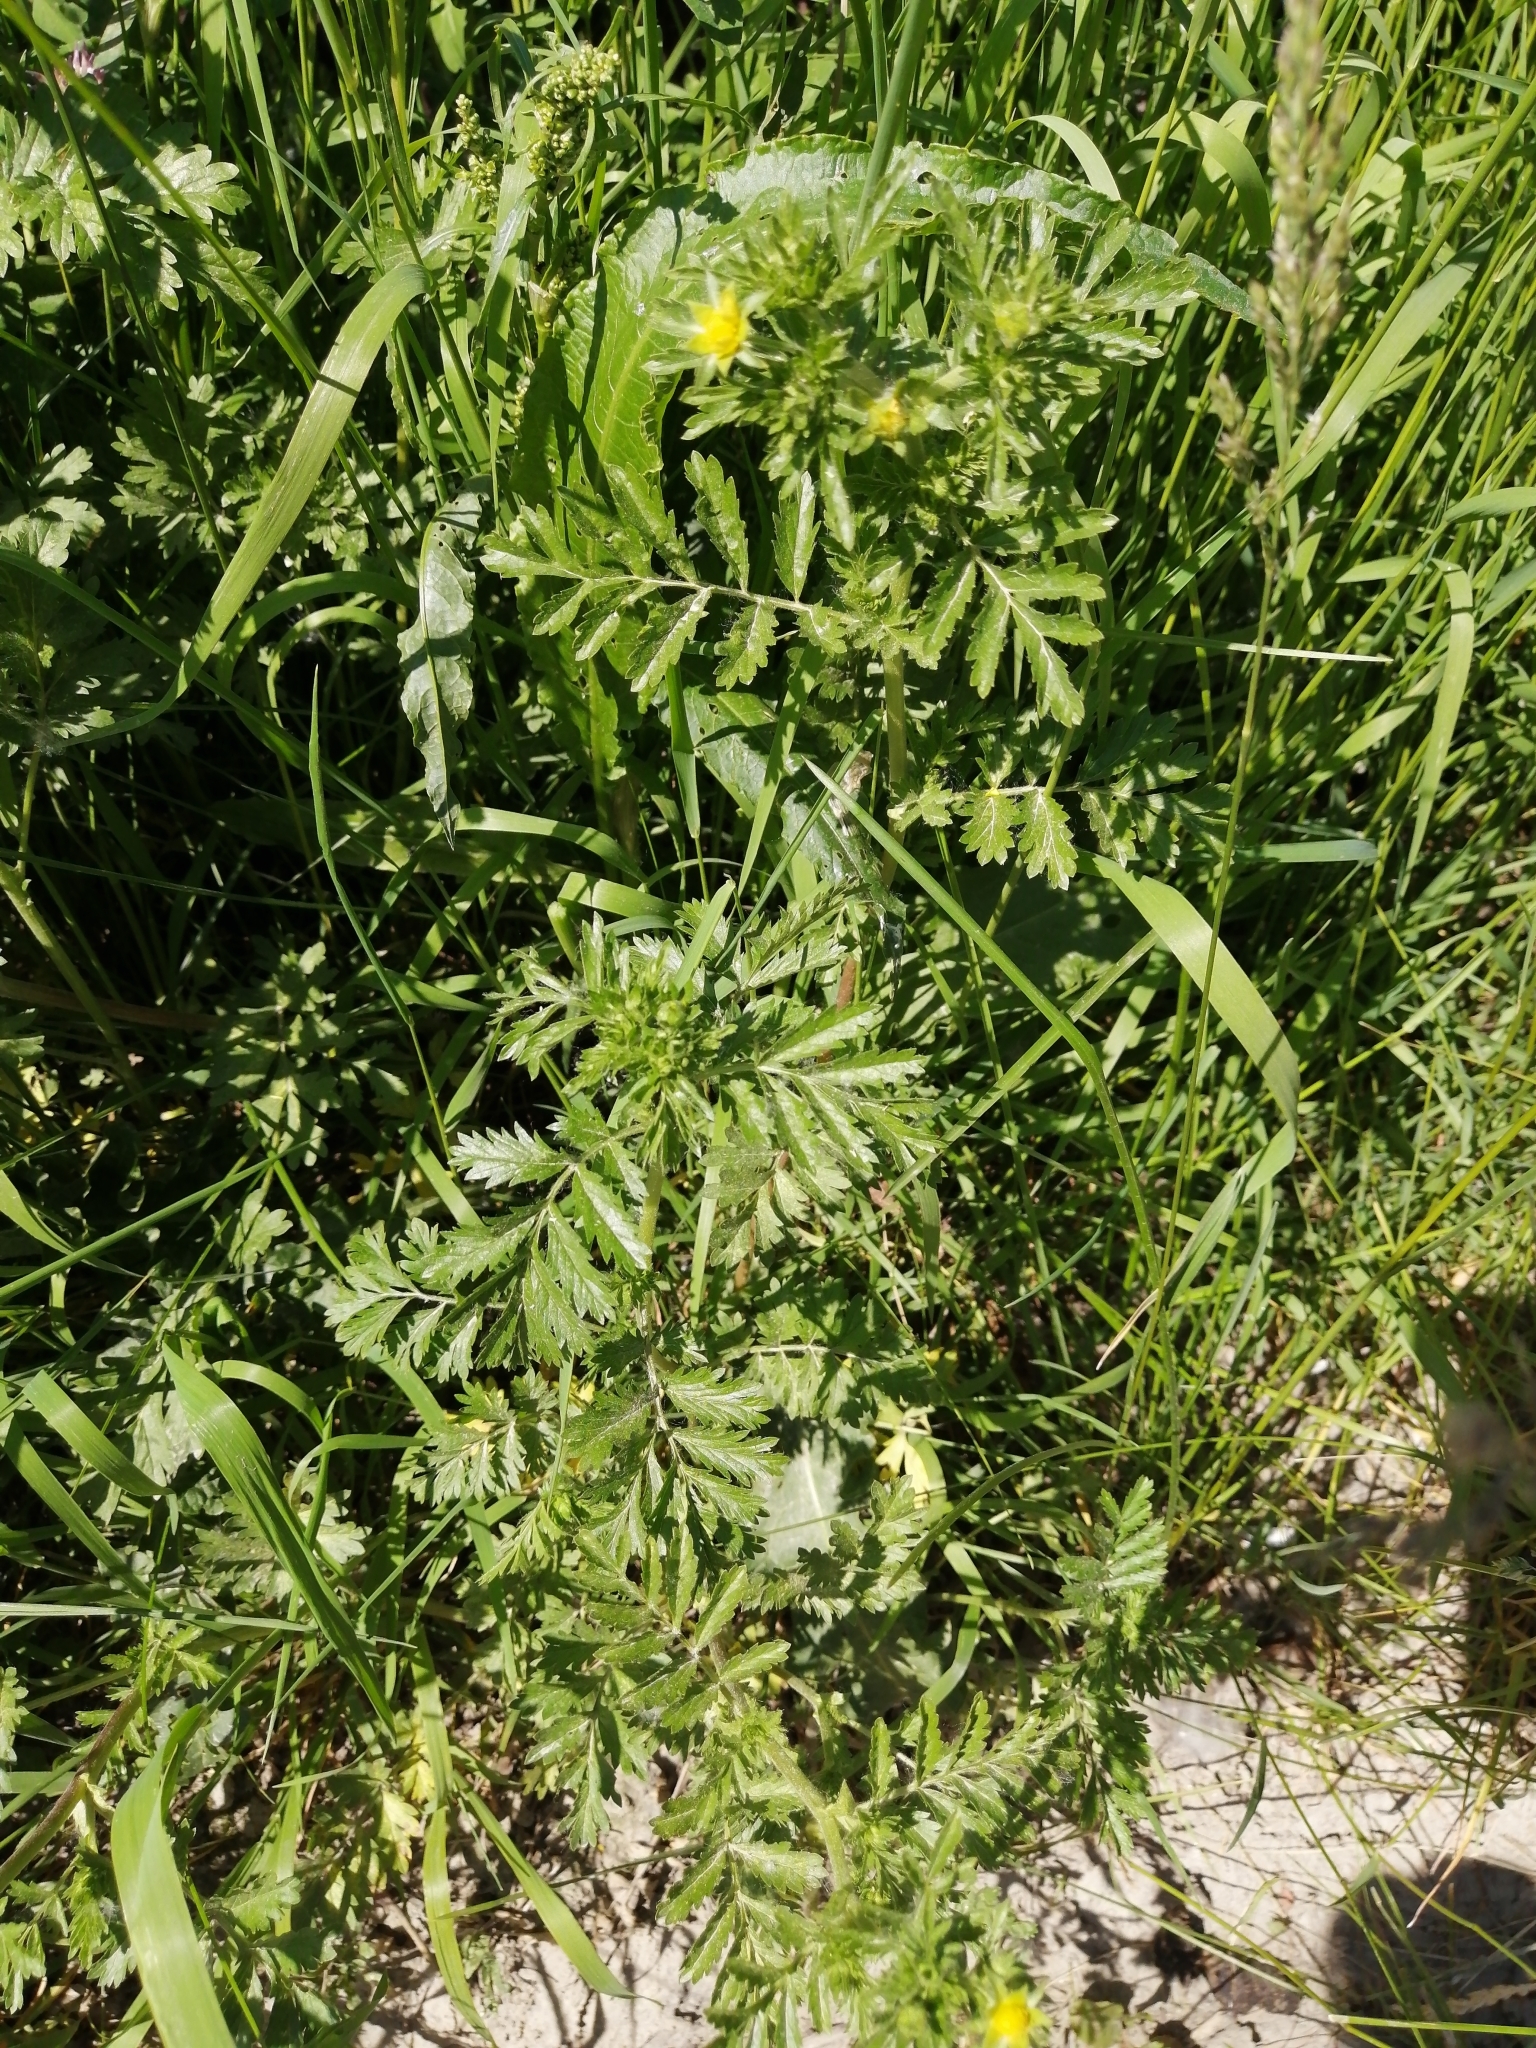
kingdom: Plantae
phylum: Tracheophyta
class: Magnoliopsida
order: Rosales
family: Rosaceae
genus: Potentilla
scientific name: Potentilla supina
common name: Prostrate cinquefoil
